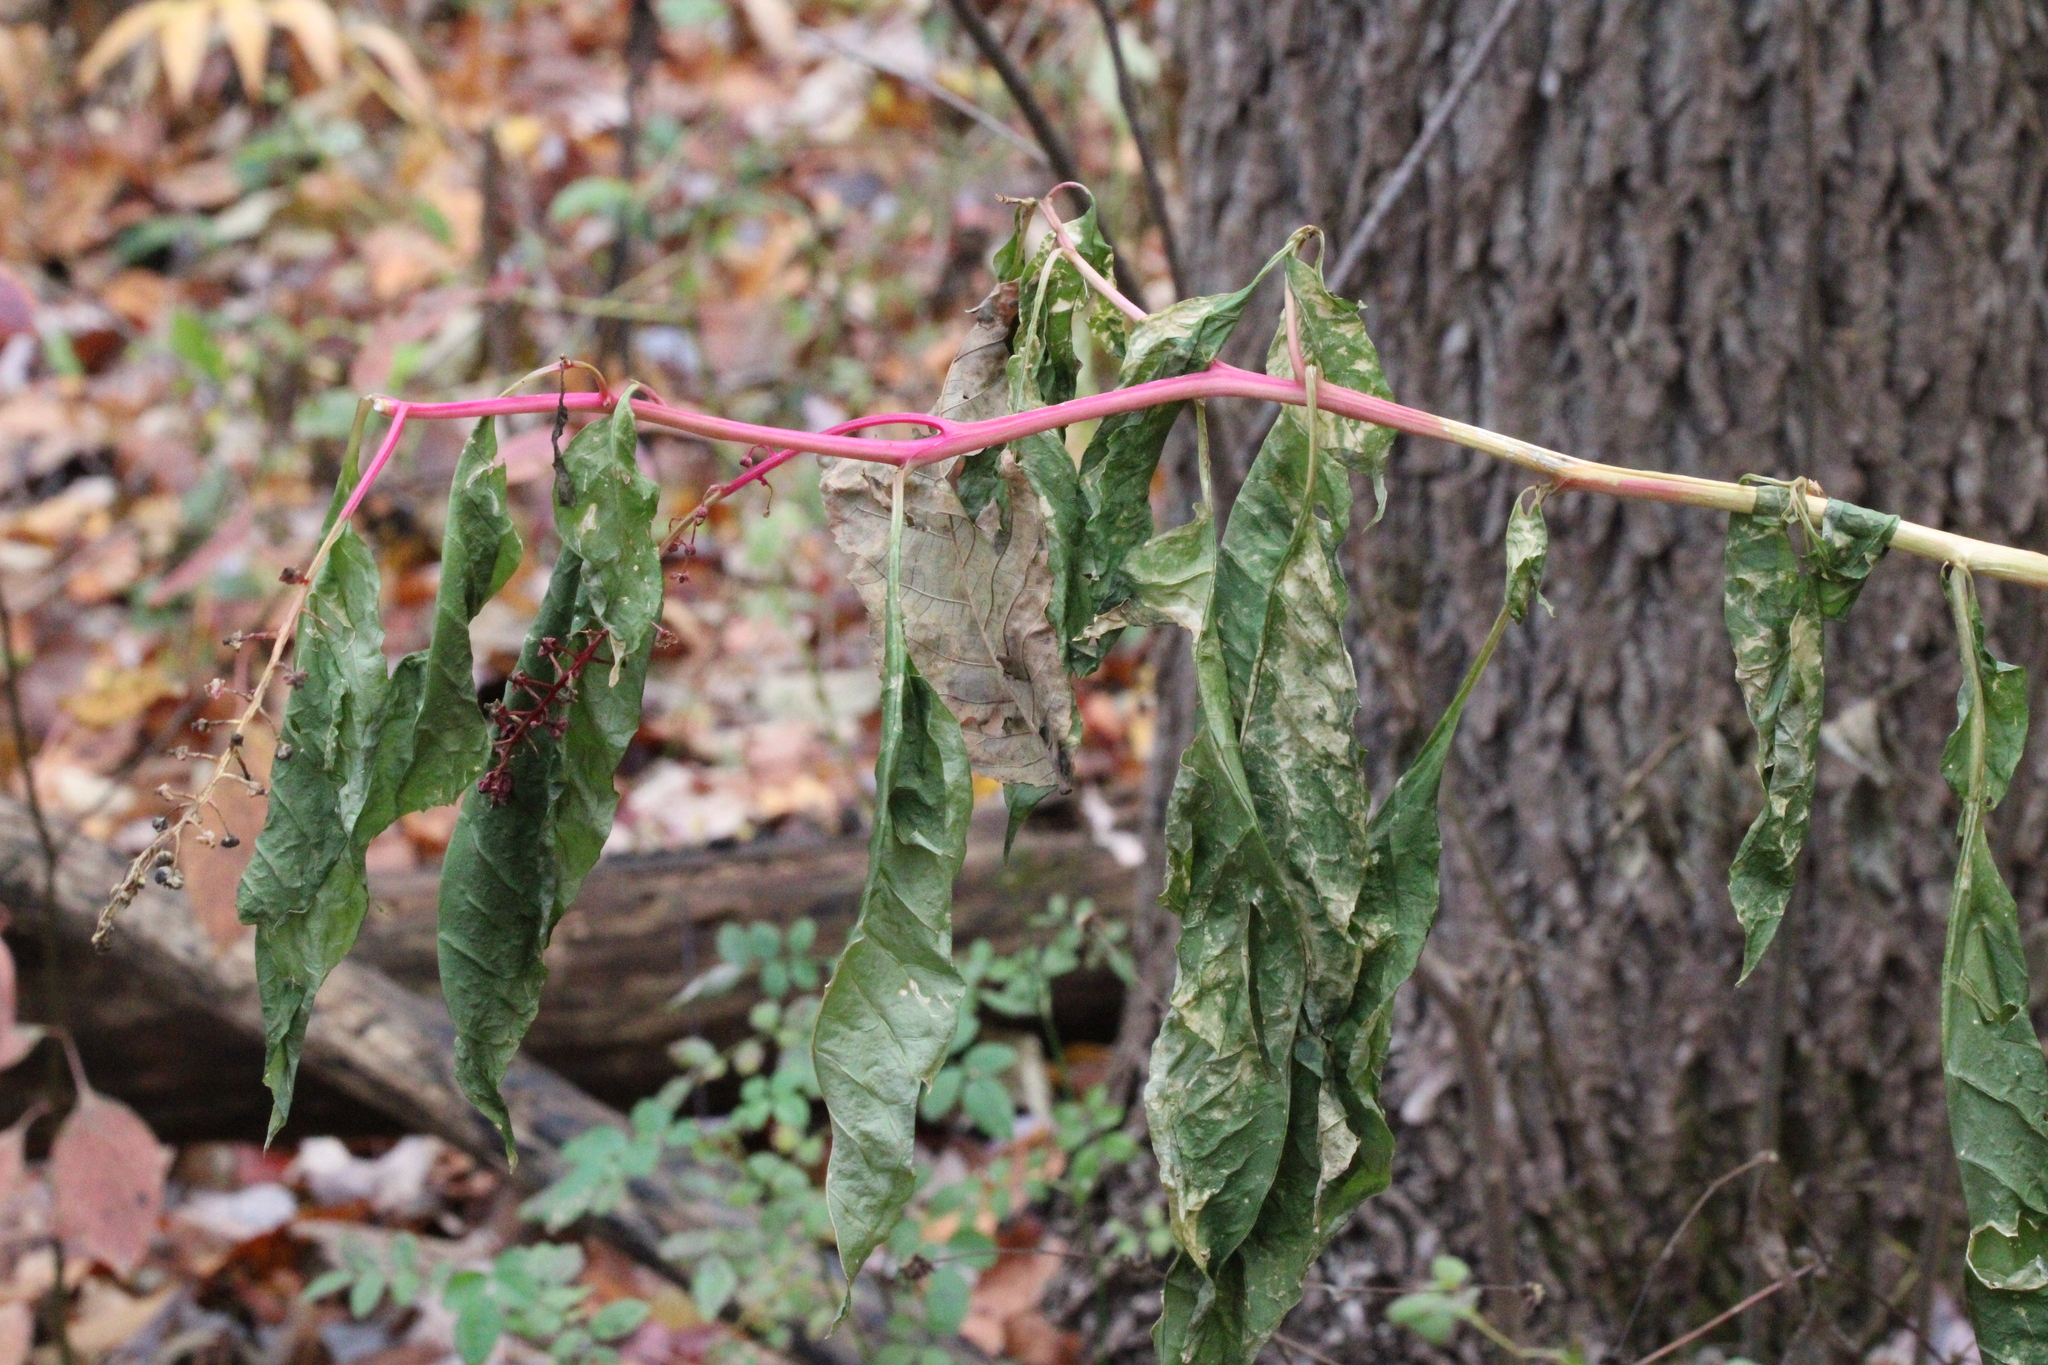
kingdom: Plantae
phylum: Tracheophyta
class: Magnoliopsida
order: Caryophyllales
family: Phytolaccaceae
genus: Phytolacca
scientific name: Phytolacca americana
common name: American pokeweed
